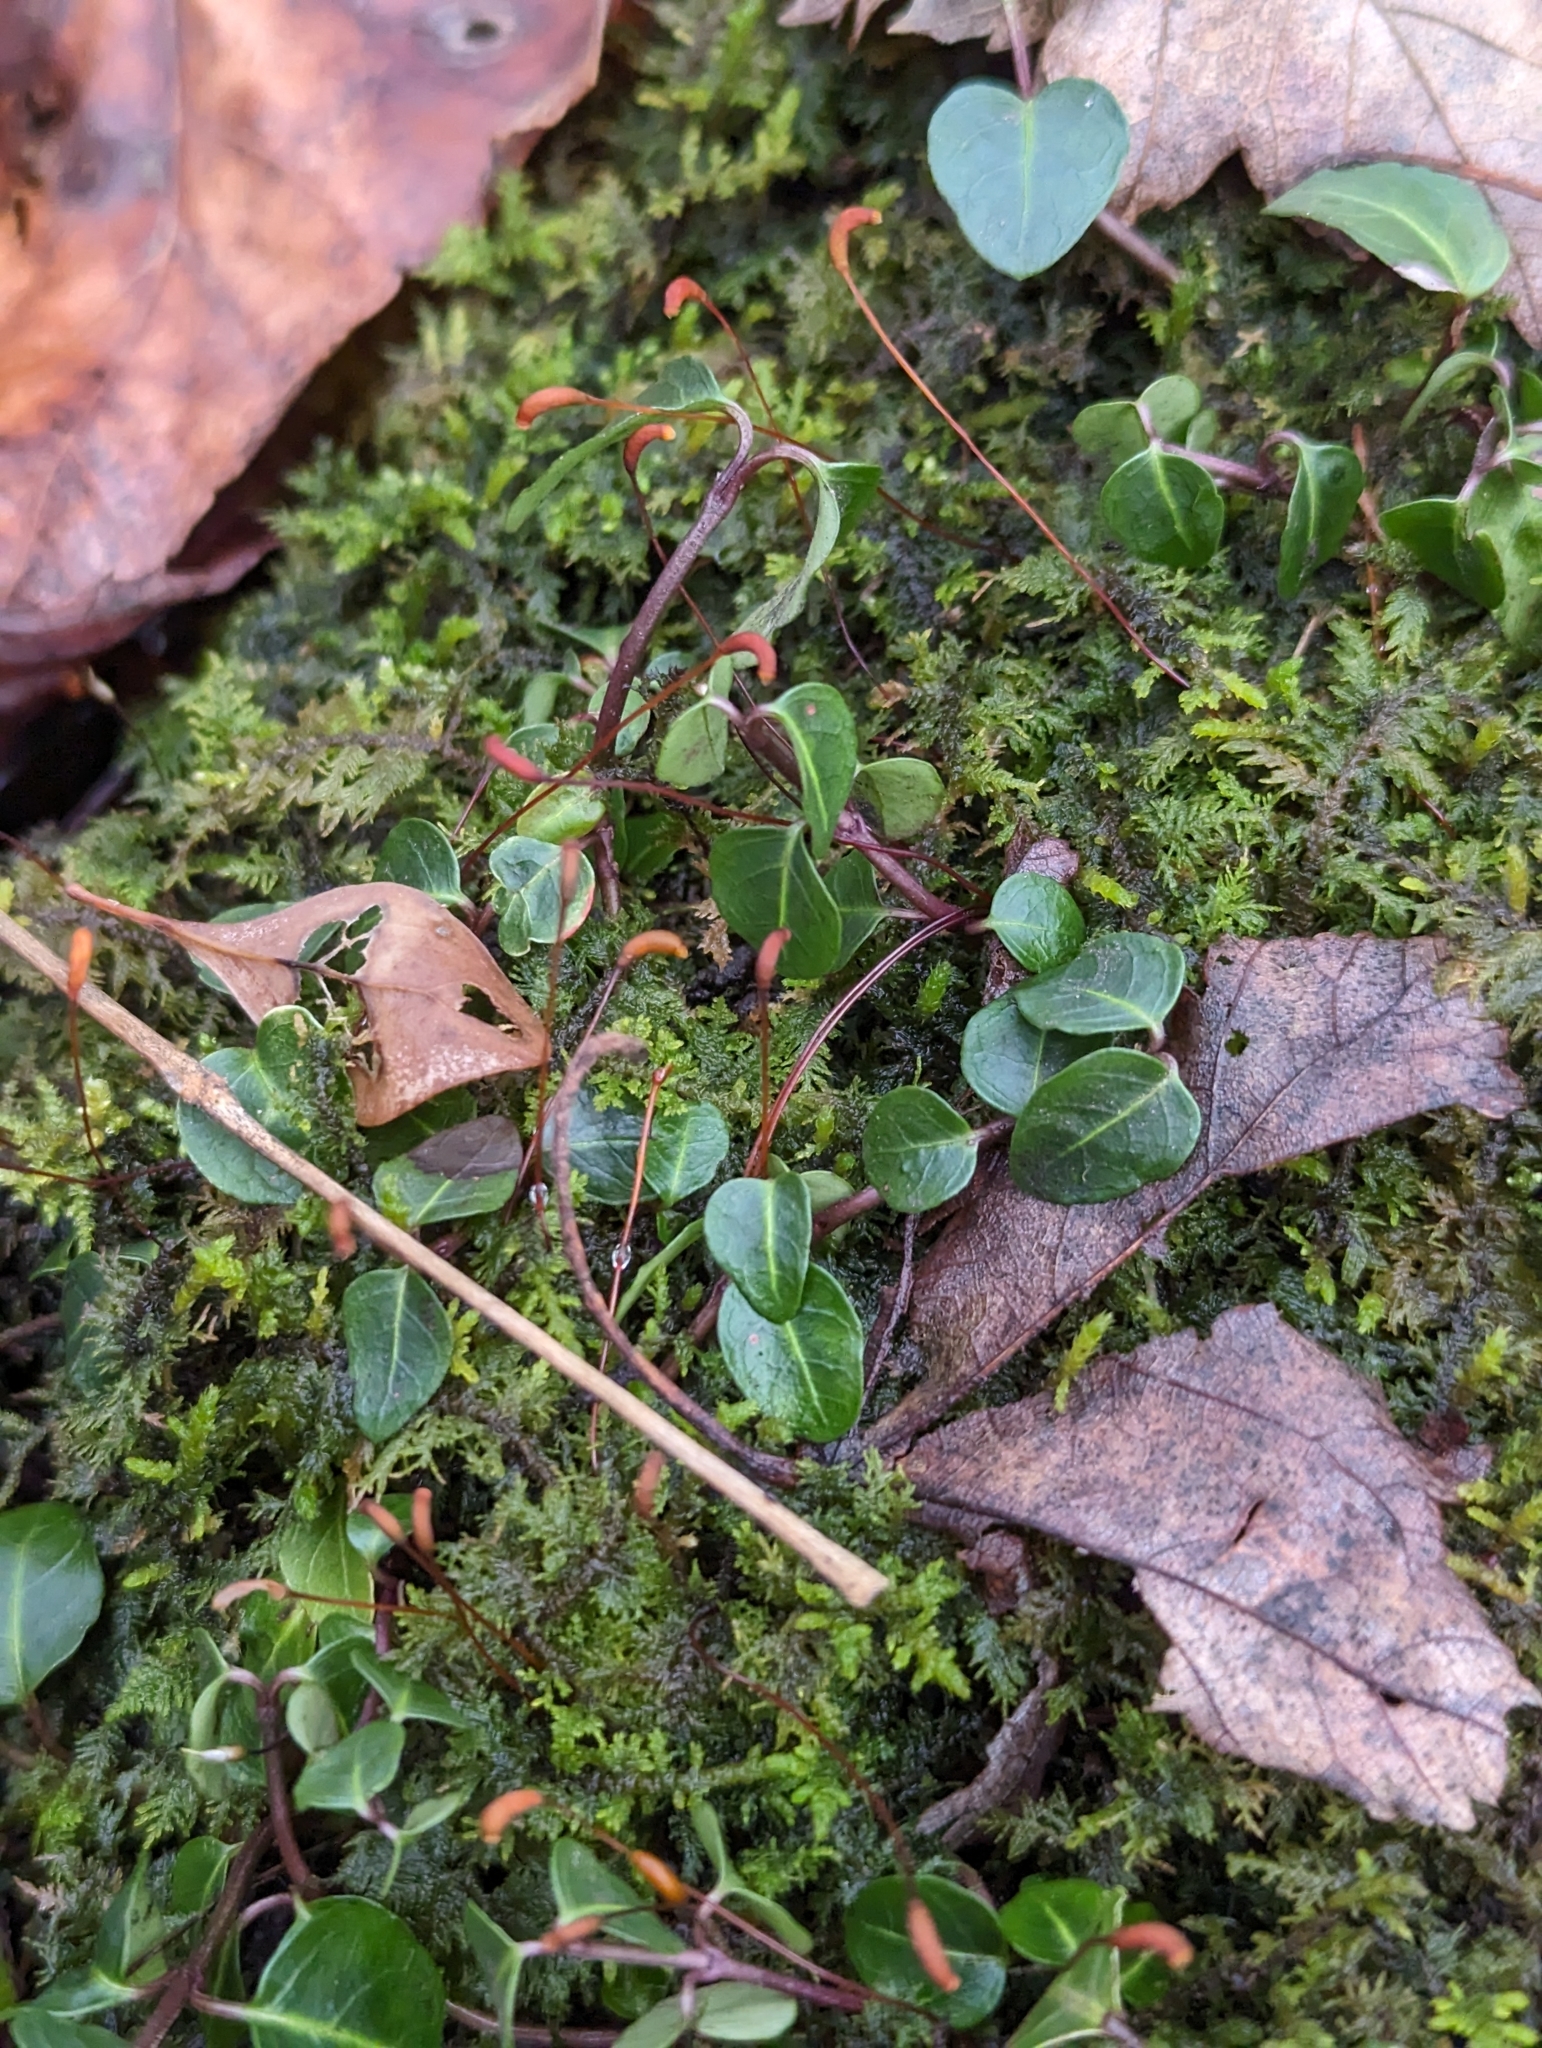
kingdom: Plantae
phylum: Tracheophyta
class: Magnoliopsida
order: Gentianales
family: Rubiaceae
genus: Mitchella
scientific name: Mitchella repens
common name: Partridge-berry
